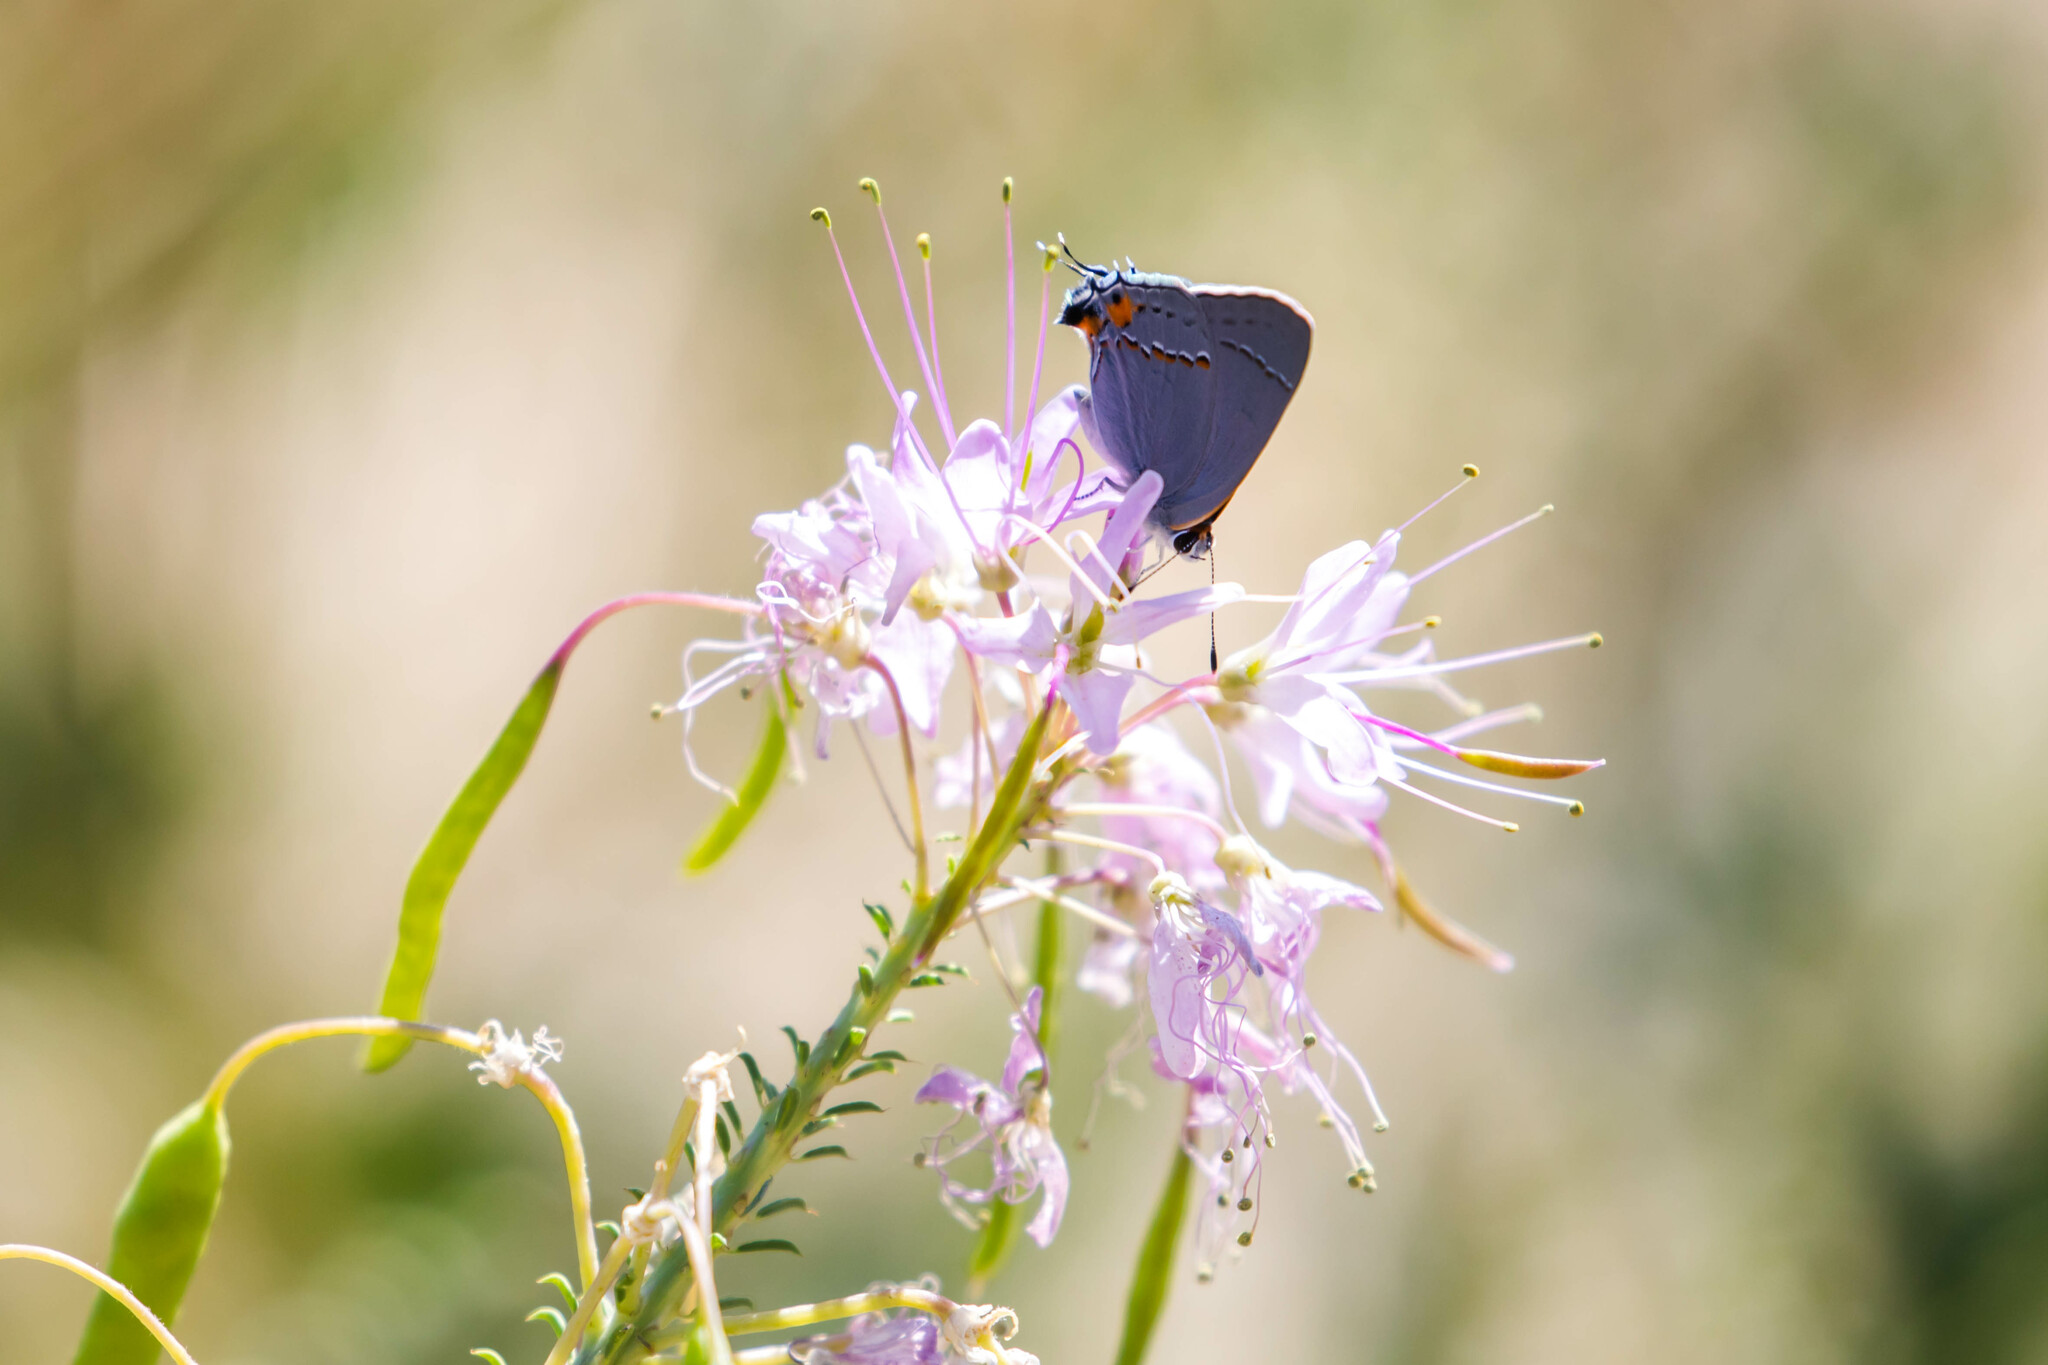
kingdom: Animalia
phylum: Arthropoda
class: Insecta
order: Lepidoptera
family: Lycaenidae
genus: Strymon
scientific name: Strymon melinus
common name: Gray hairstreak
